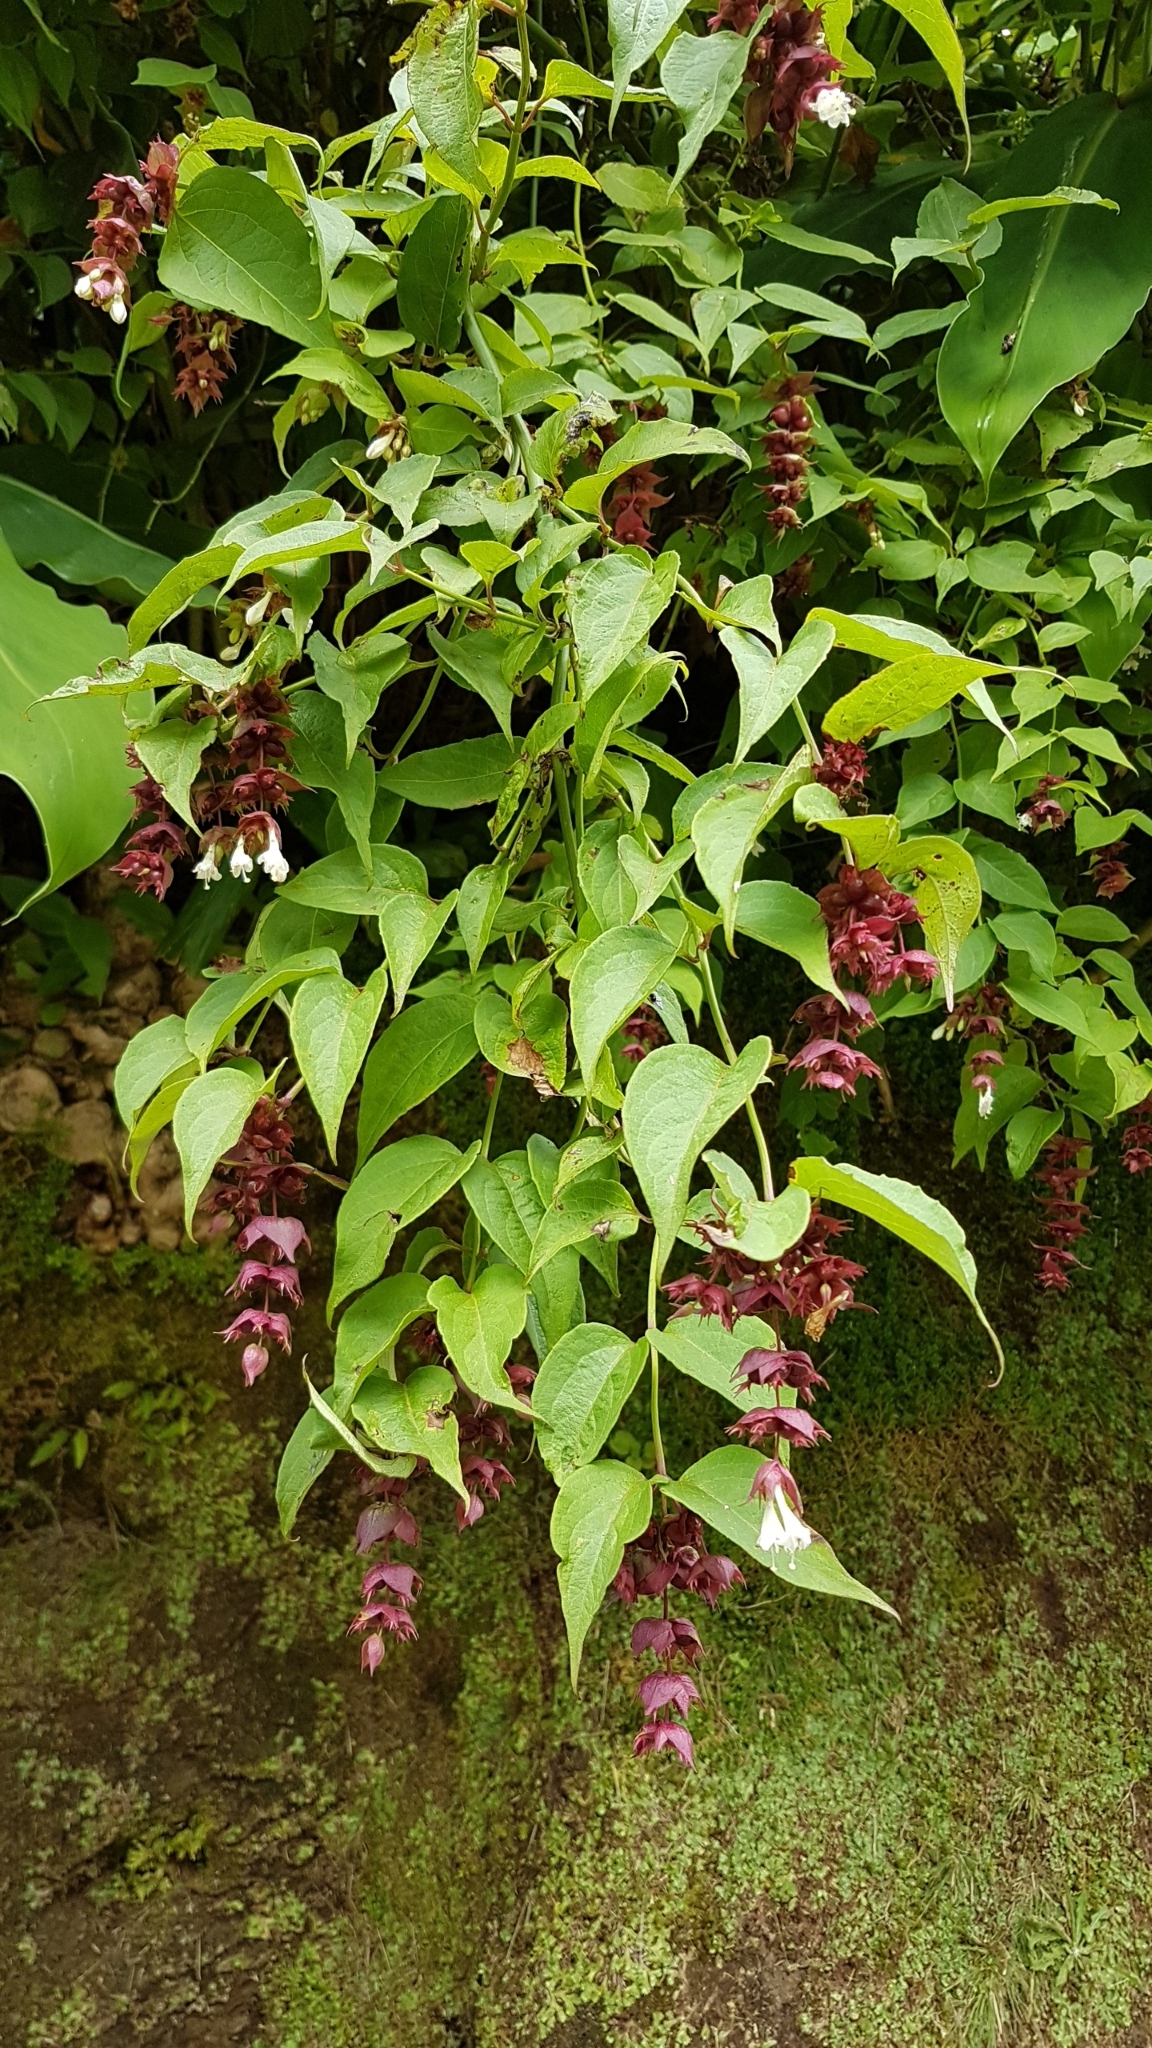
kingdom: Plantae
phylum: Tracheophyta
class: Magnoliopsida
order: Dipsacales
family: Caprifoliaceae
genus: Leycesteria
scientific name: Leycesteria formosa
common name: Himalayan honeysuckle
